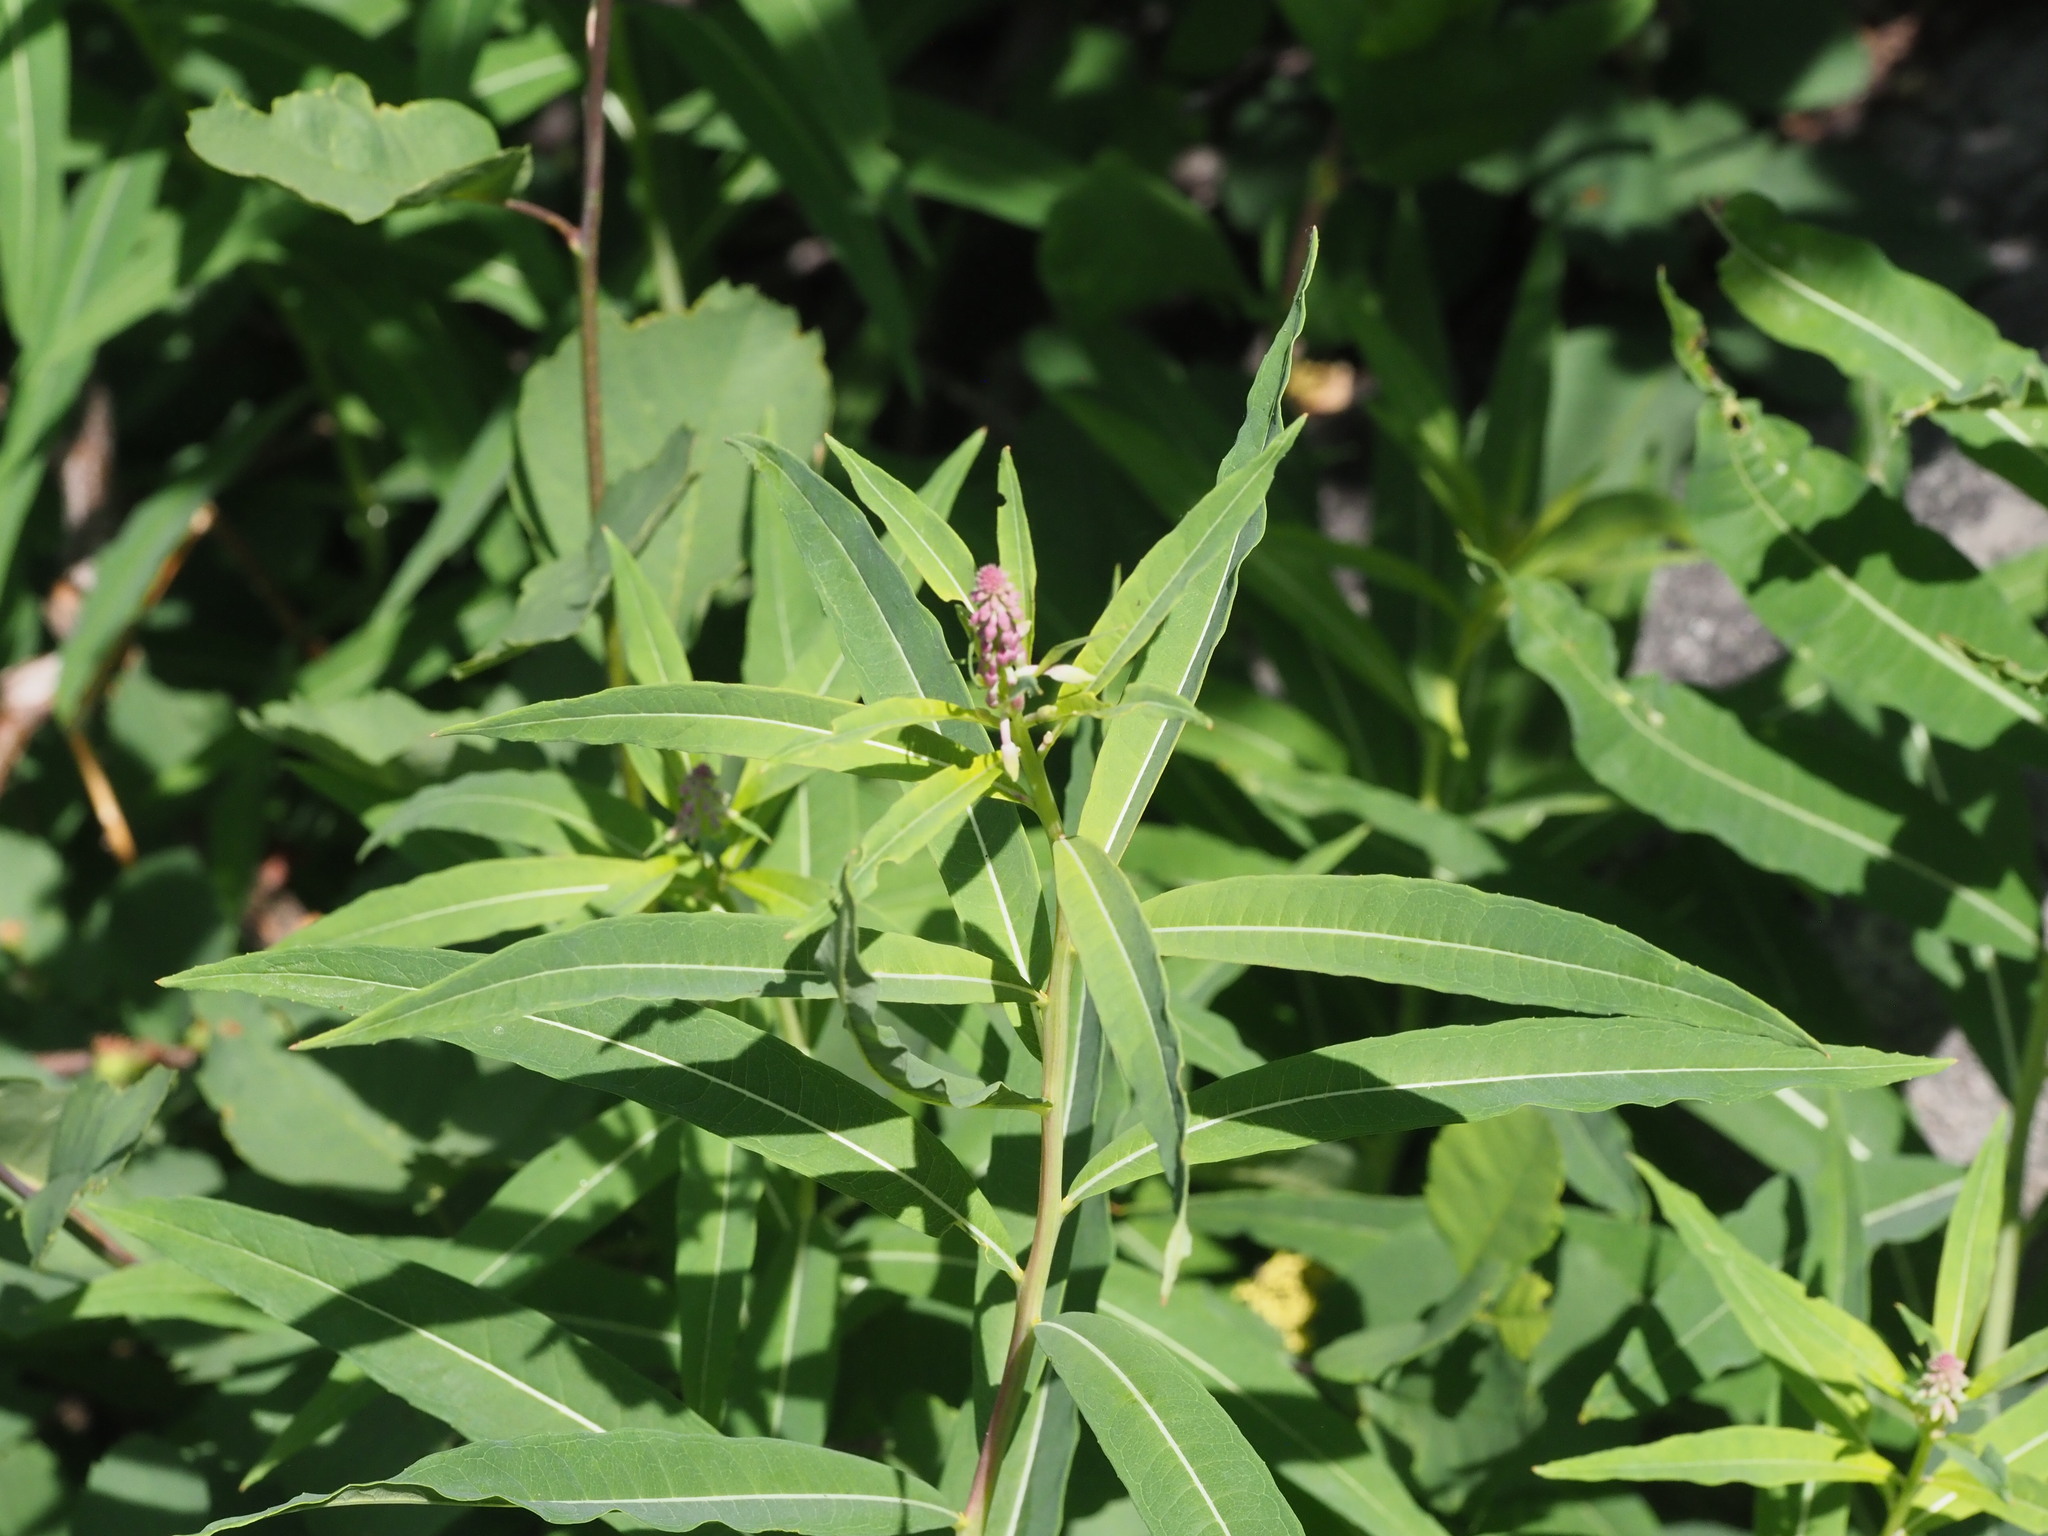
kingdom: Plantae
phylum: Tracheophyta
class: Magnoliopsida
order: Myrtales
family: Onagraceae
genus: Chamaenerion
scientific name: Chamaenerion angustifolium
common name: Fireweed
